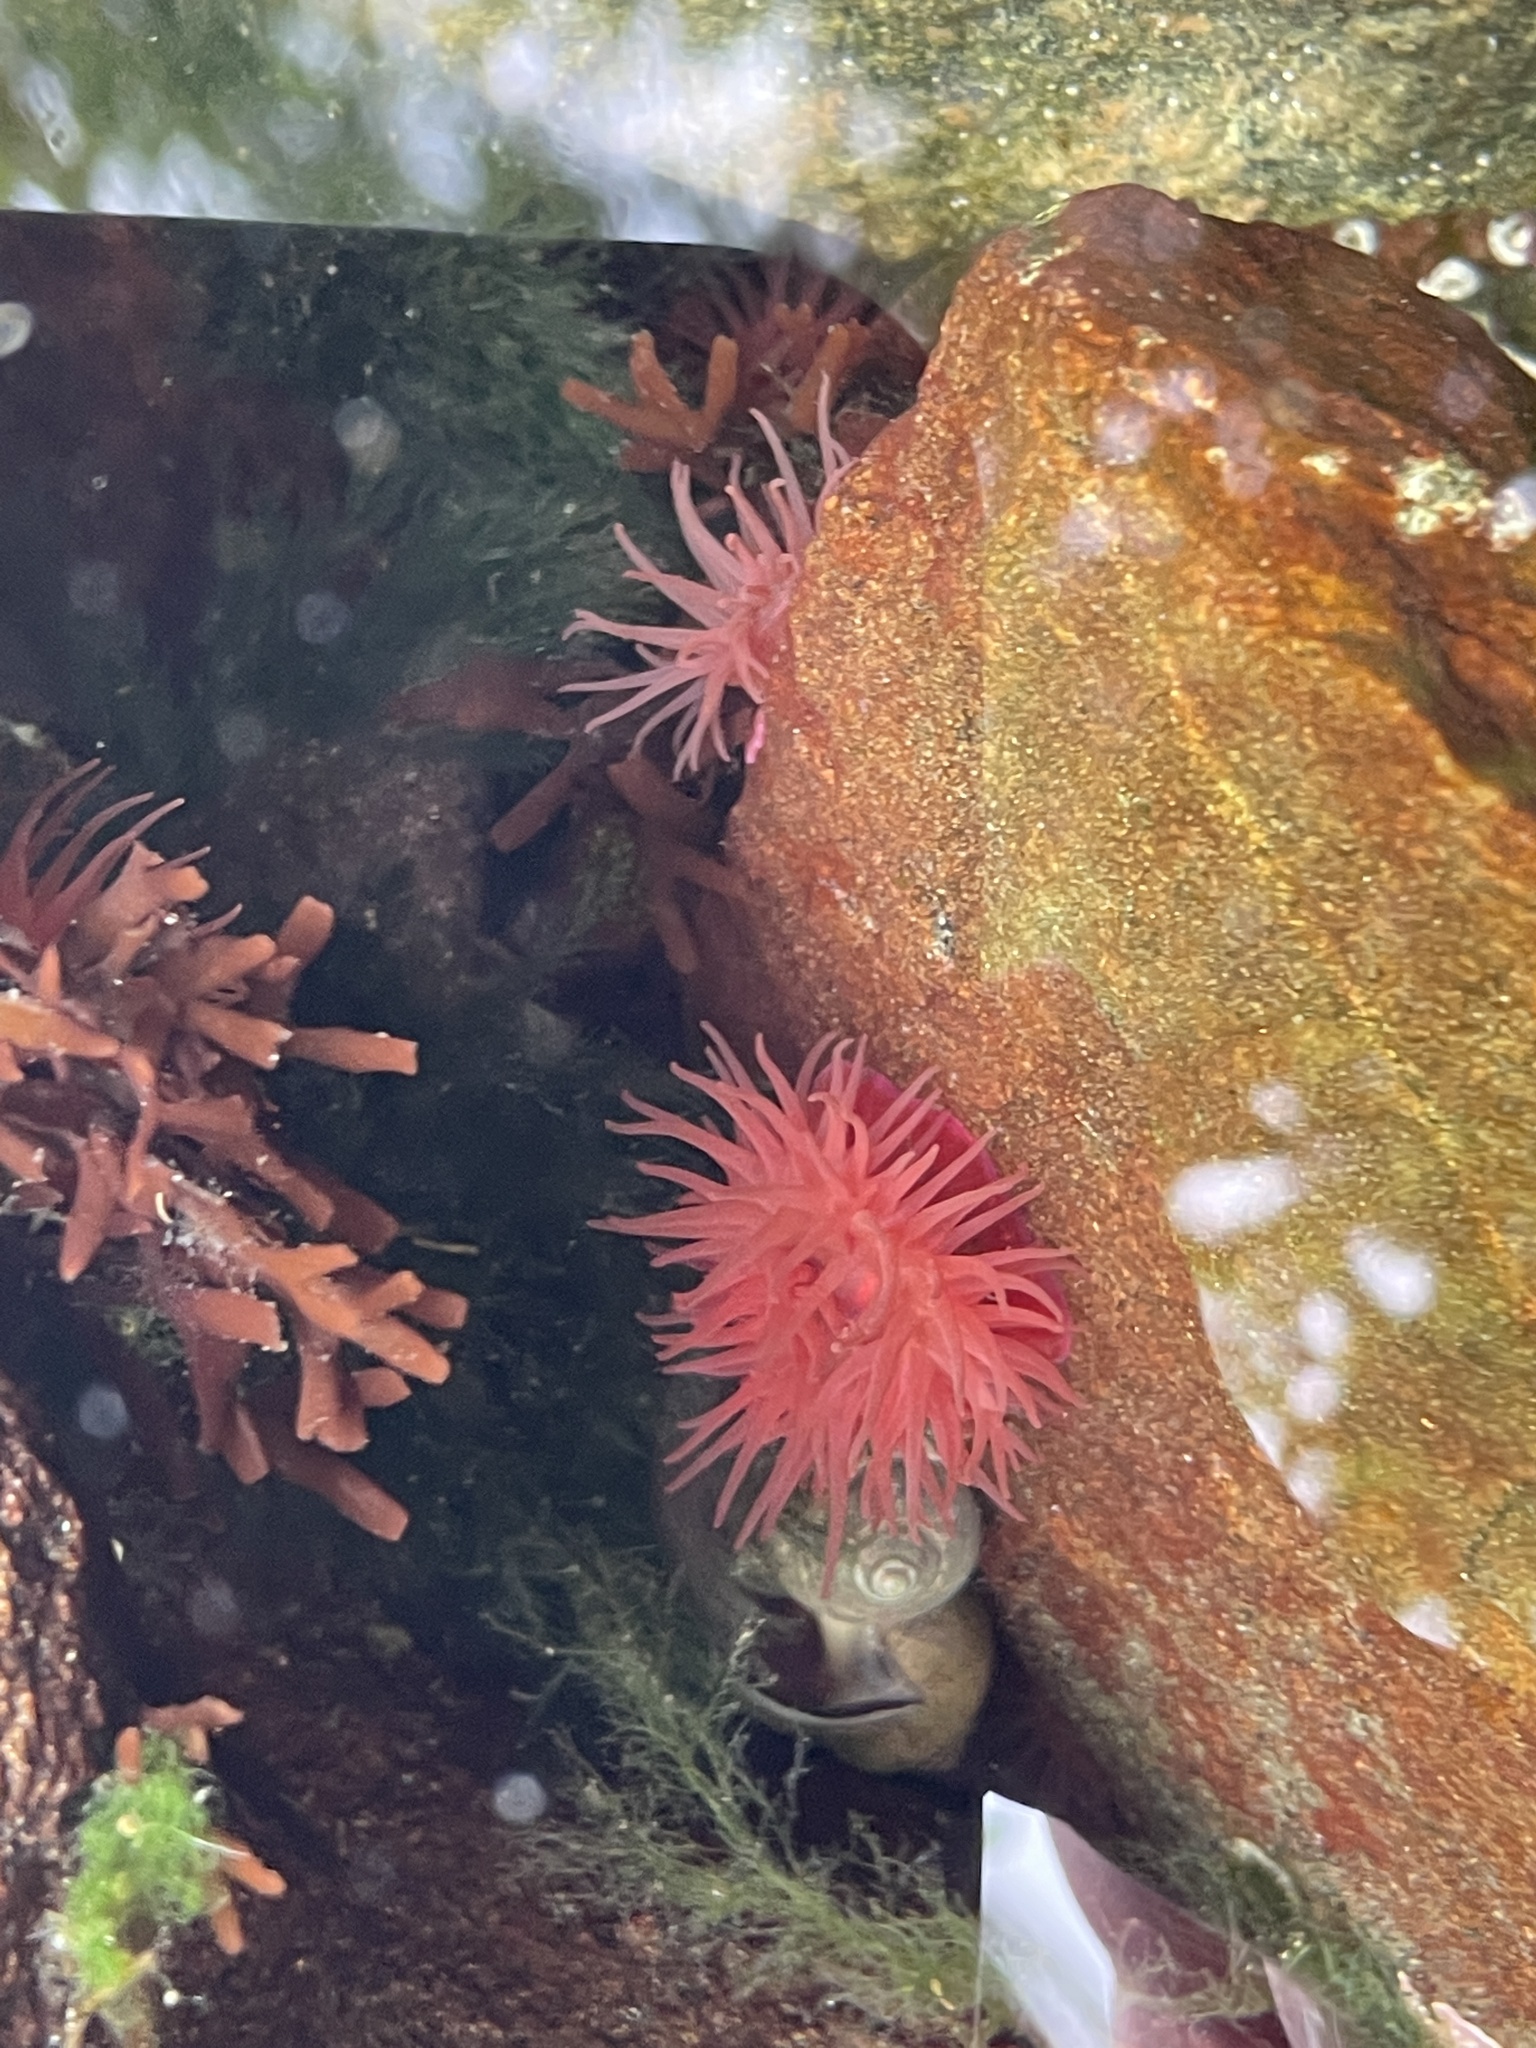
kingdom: Animalia
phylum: Cnidaria
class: Anthozoa
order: Actiniaria
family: Actiniidae
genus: Actinia
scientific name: Actinia equina
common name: Beadlet anemone
